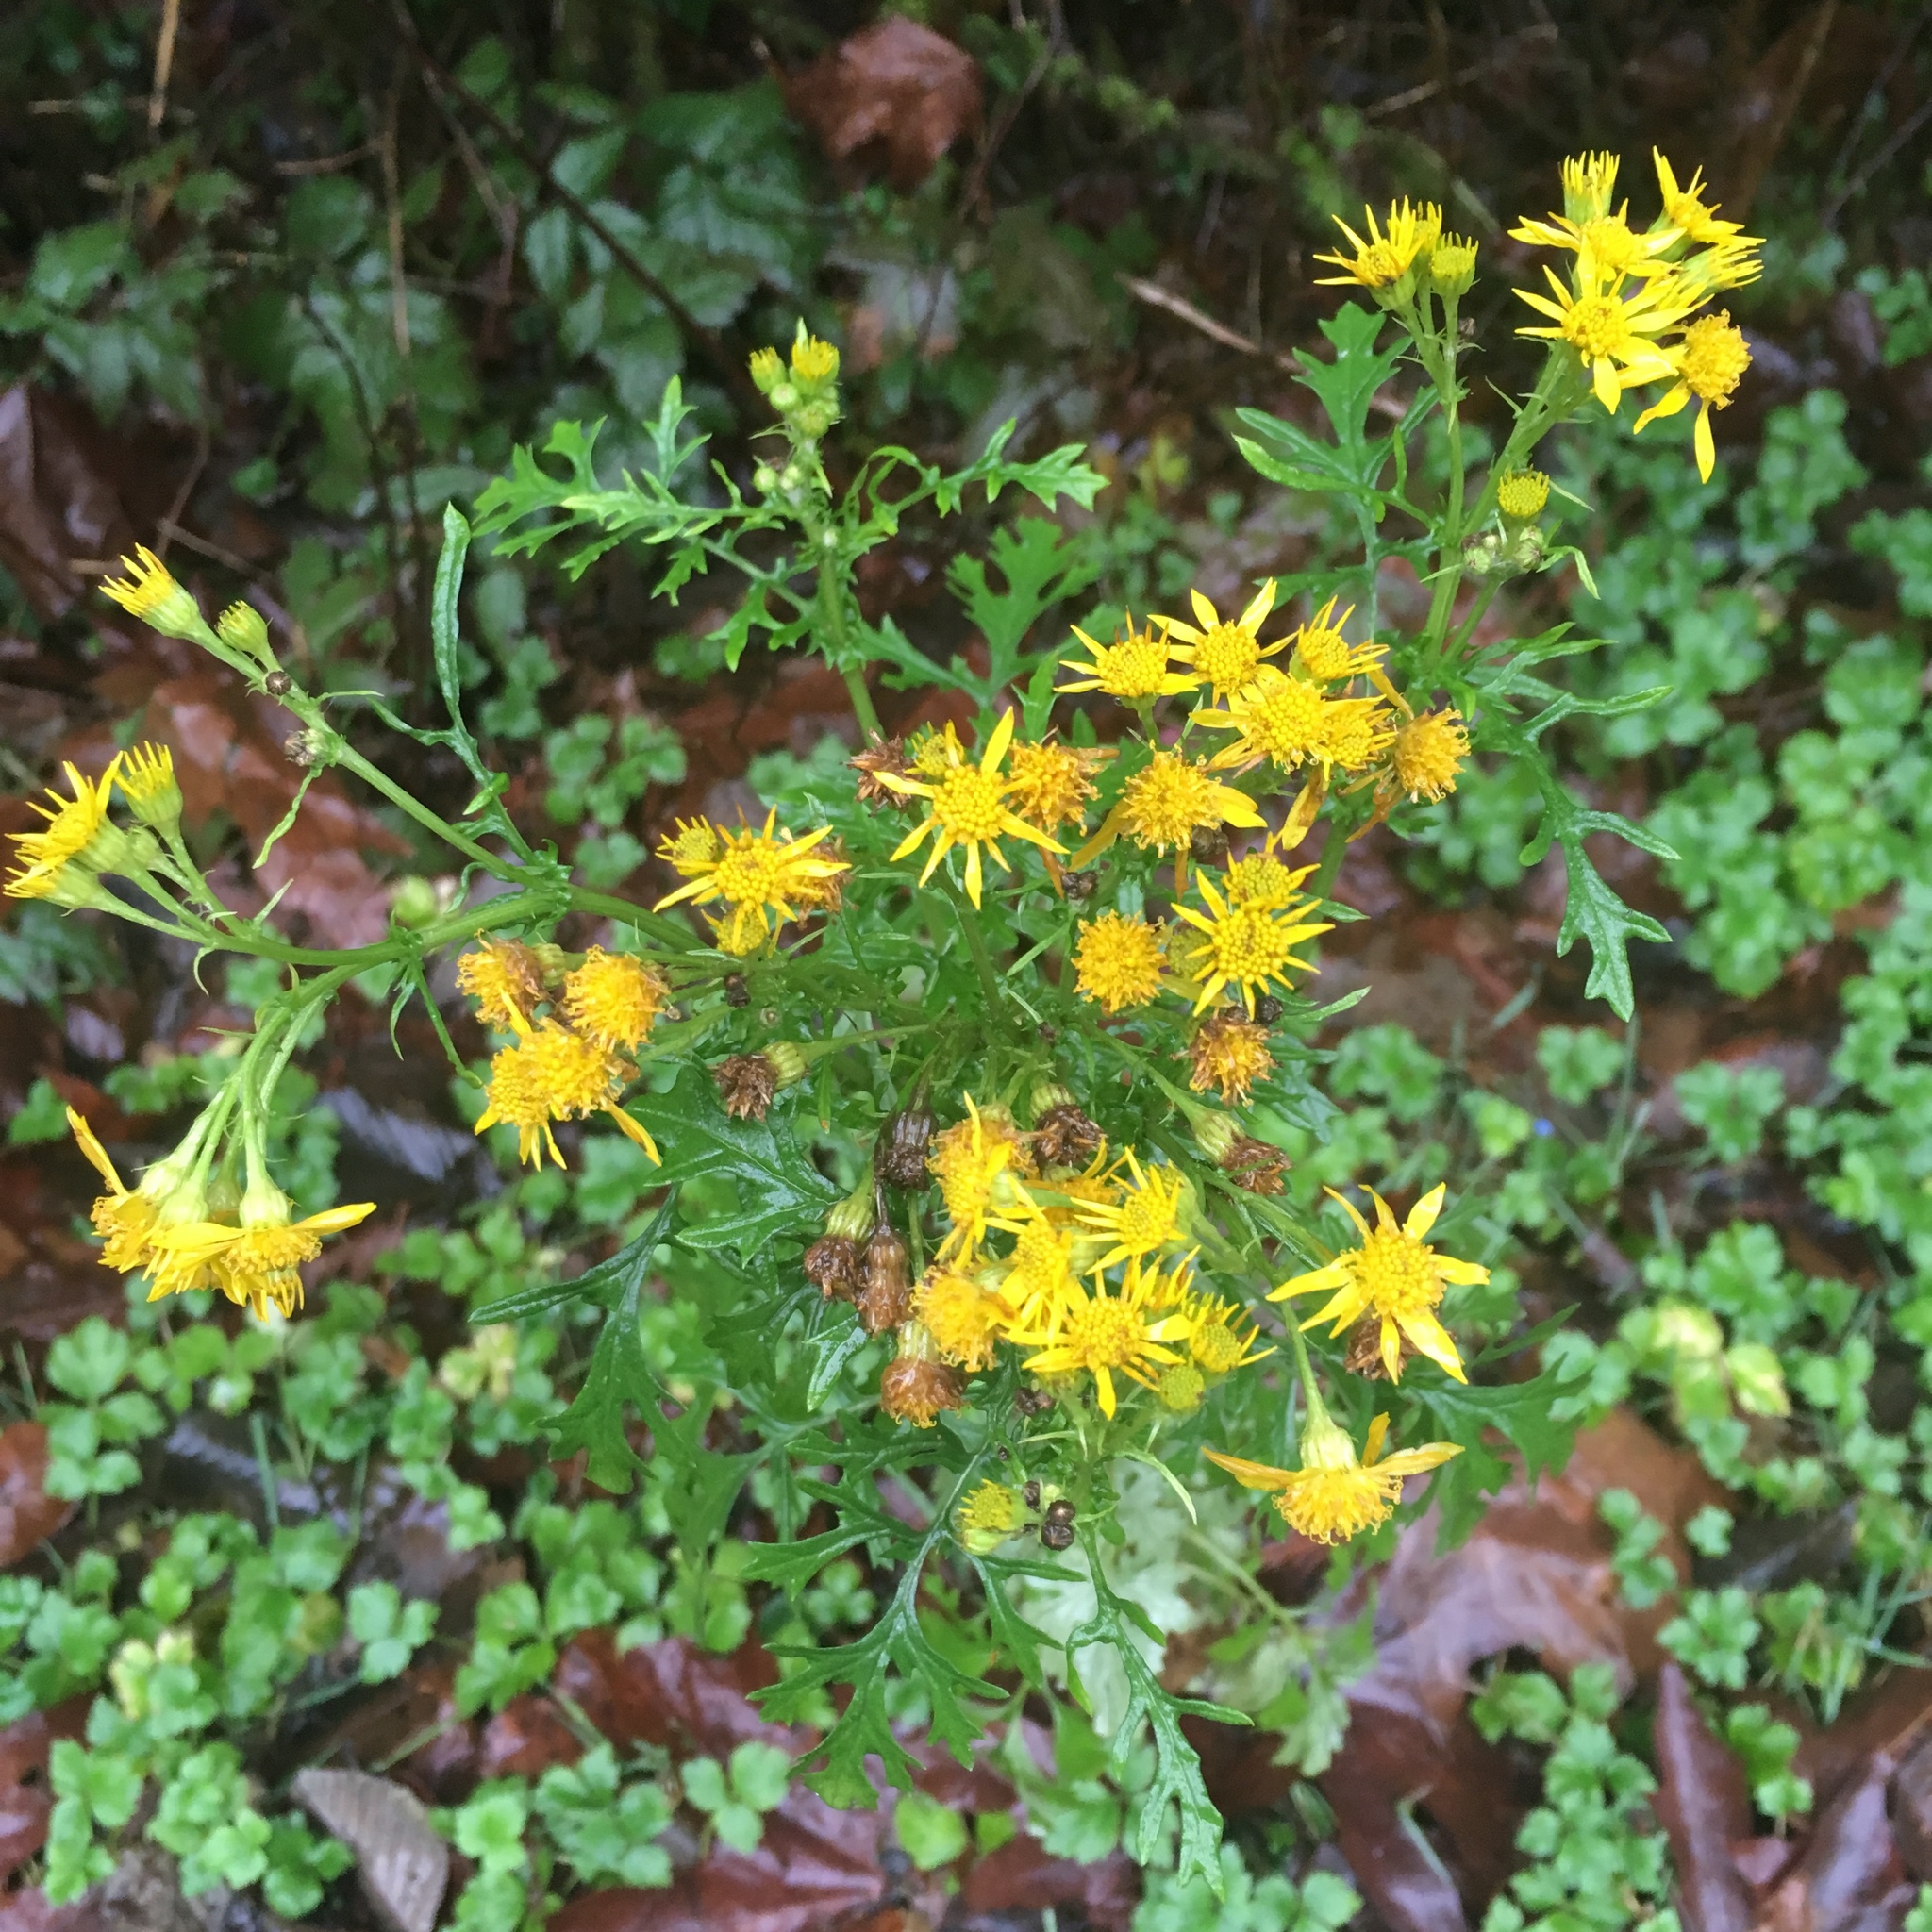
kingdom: Plantae
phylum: Tracheophyta
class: Magnoliopsida
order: Asterales
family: Asteraceae
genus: Jacobaea
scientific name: Jacobaea vulgaris
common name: Stinking willie
